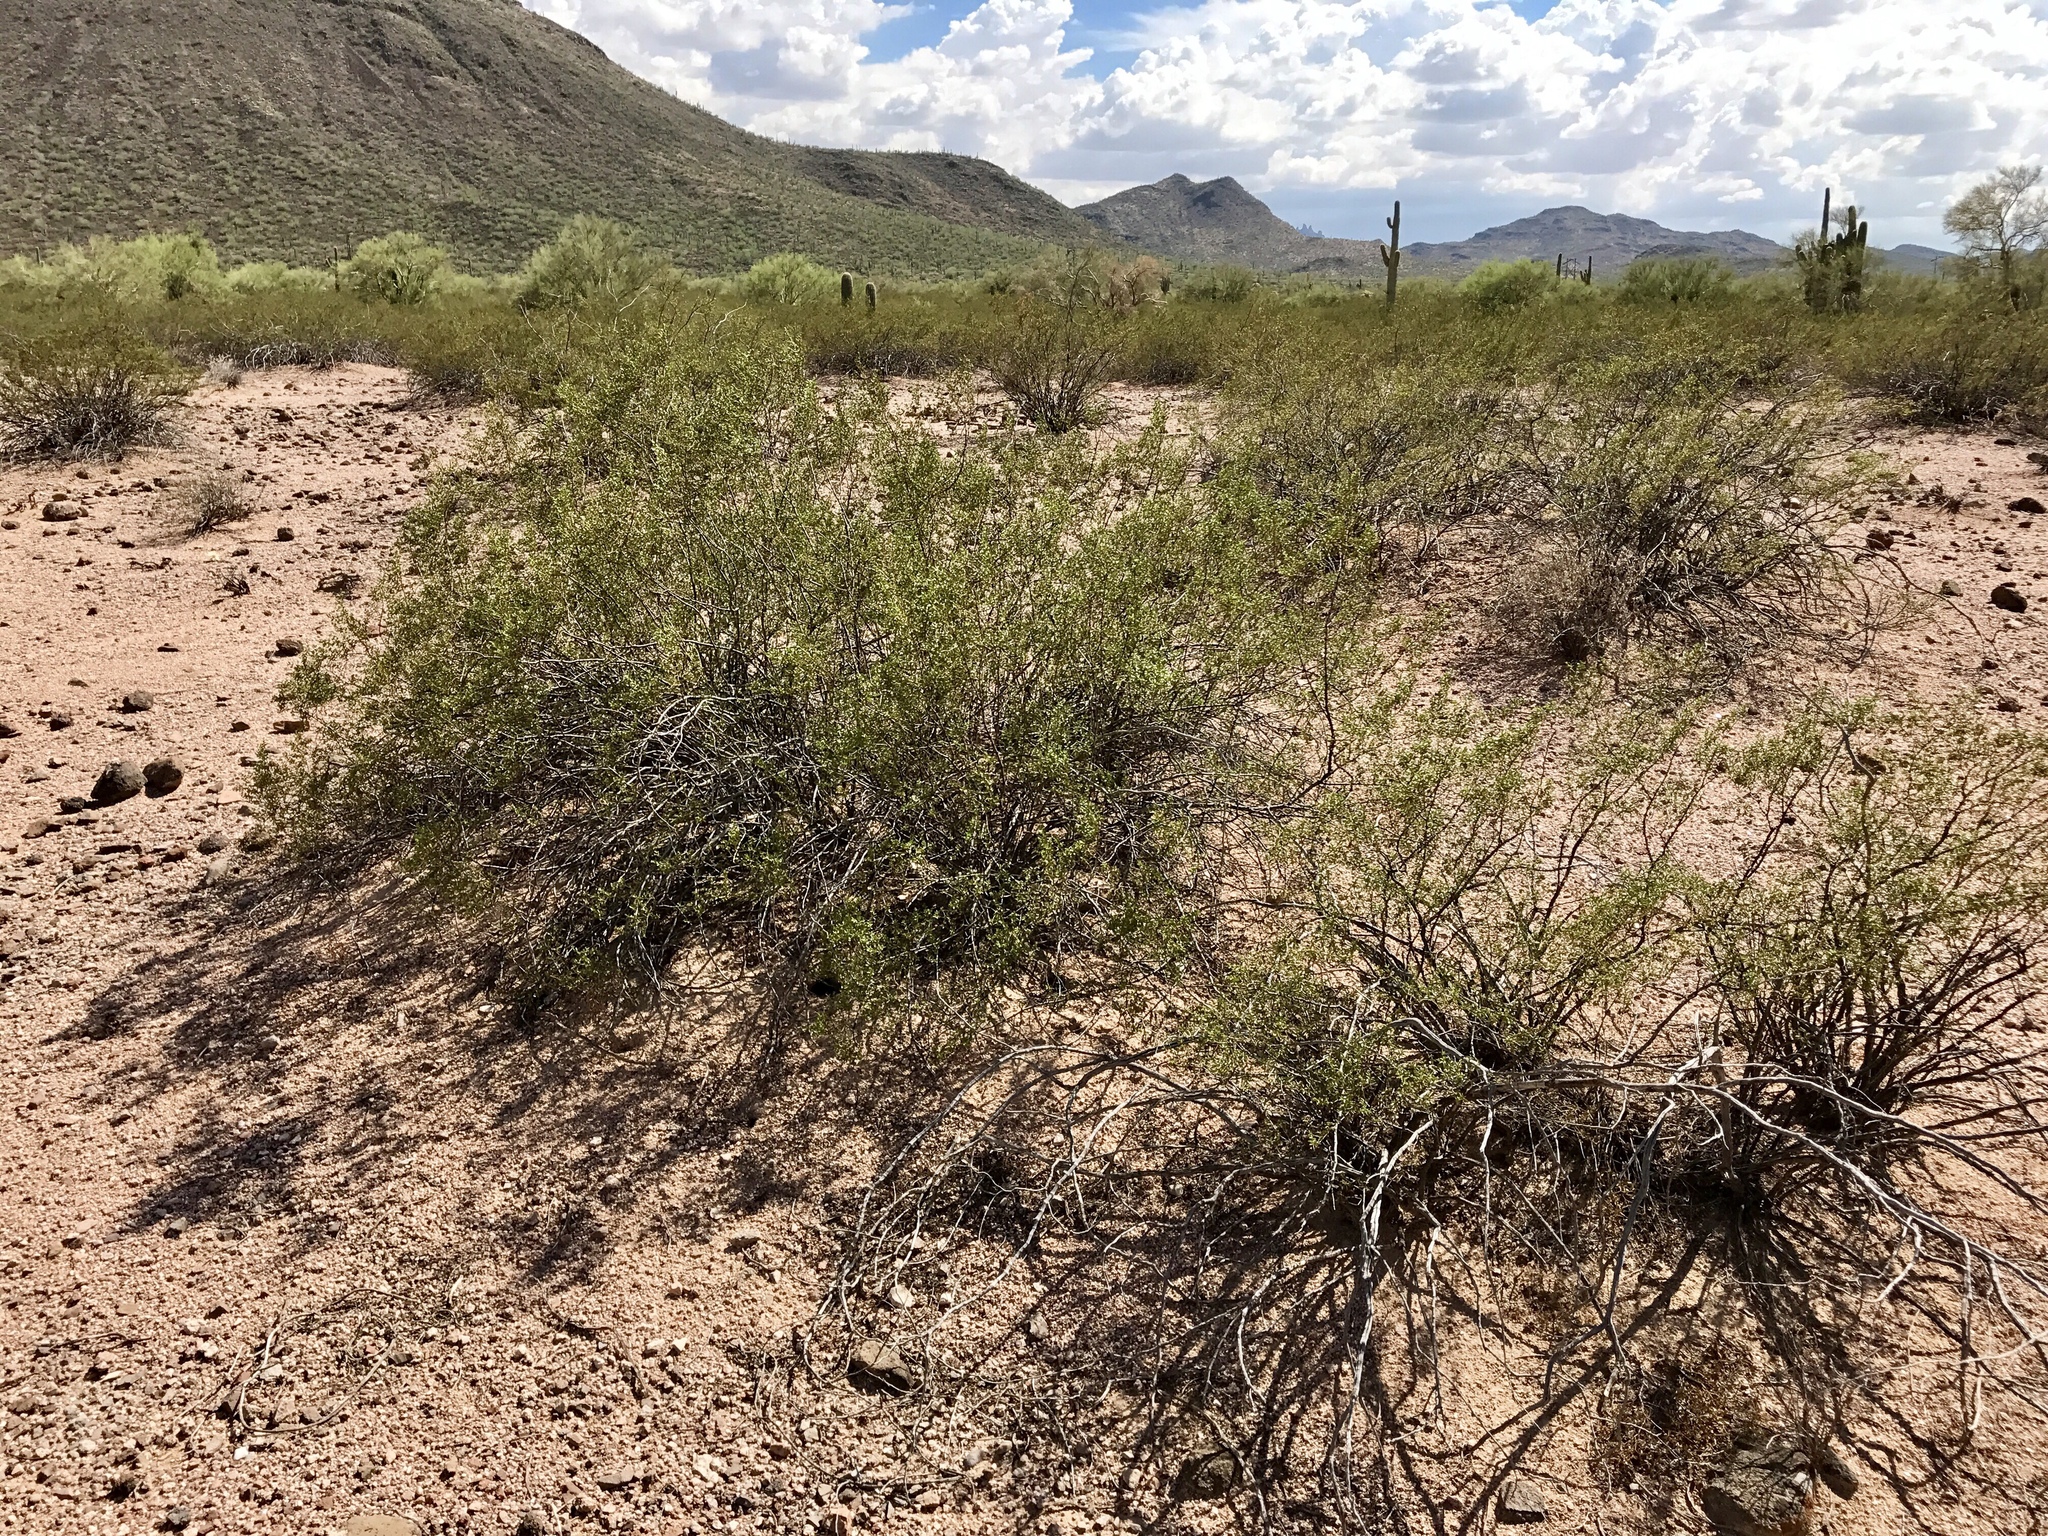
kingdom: Plantae
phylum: Tracheophyta
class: Magnoliopsida
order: Zygophyllales
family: Zygophyllaceae
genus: Larrea
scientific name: Larrea tridentata
